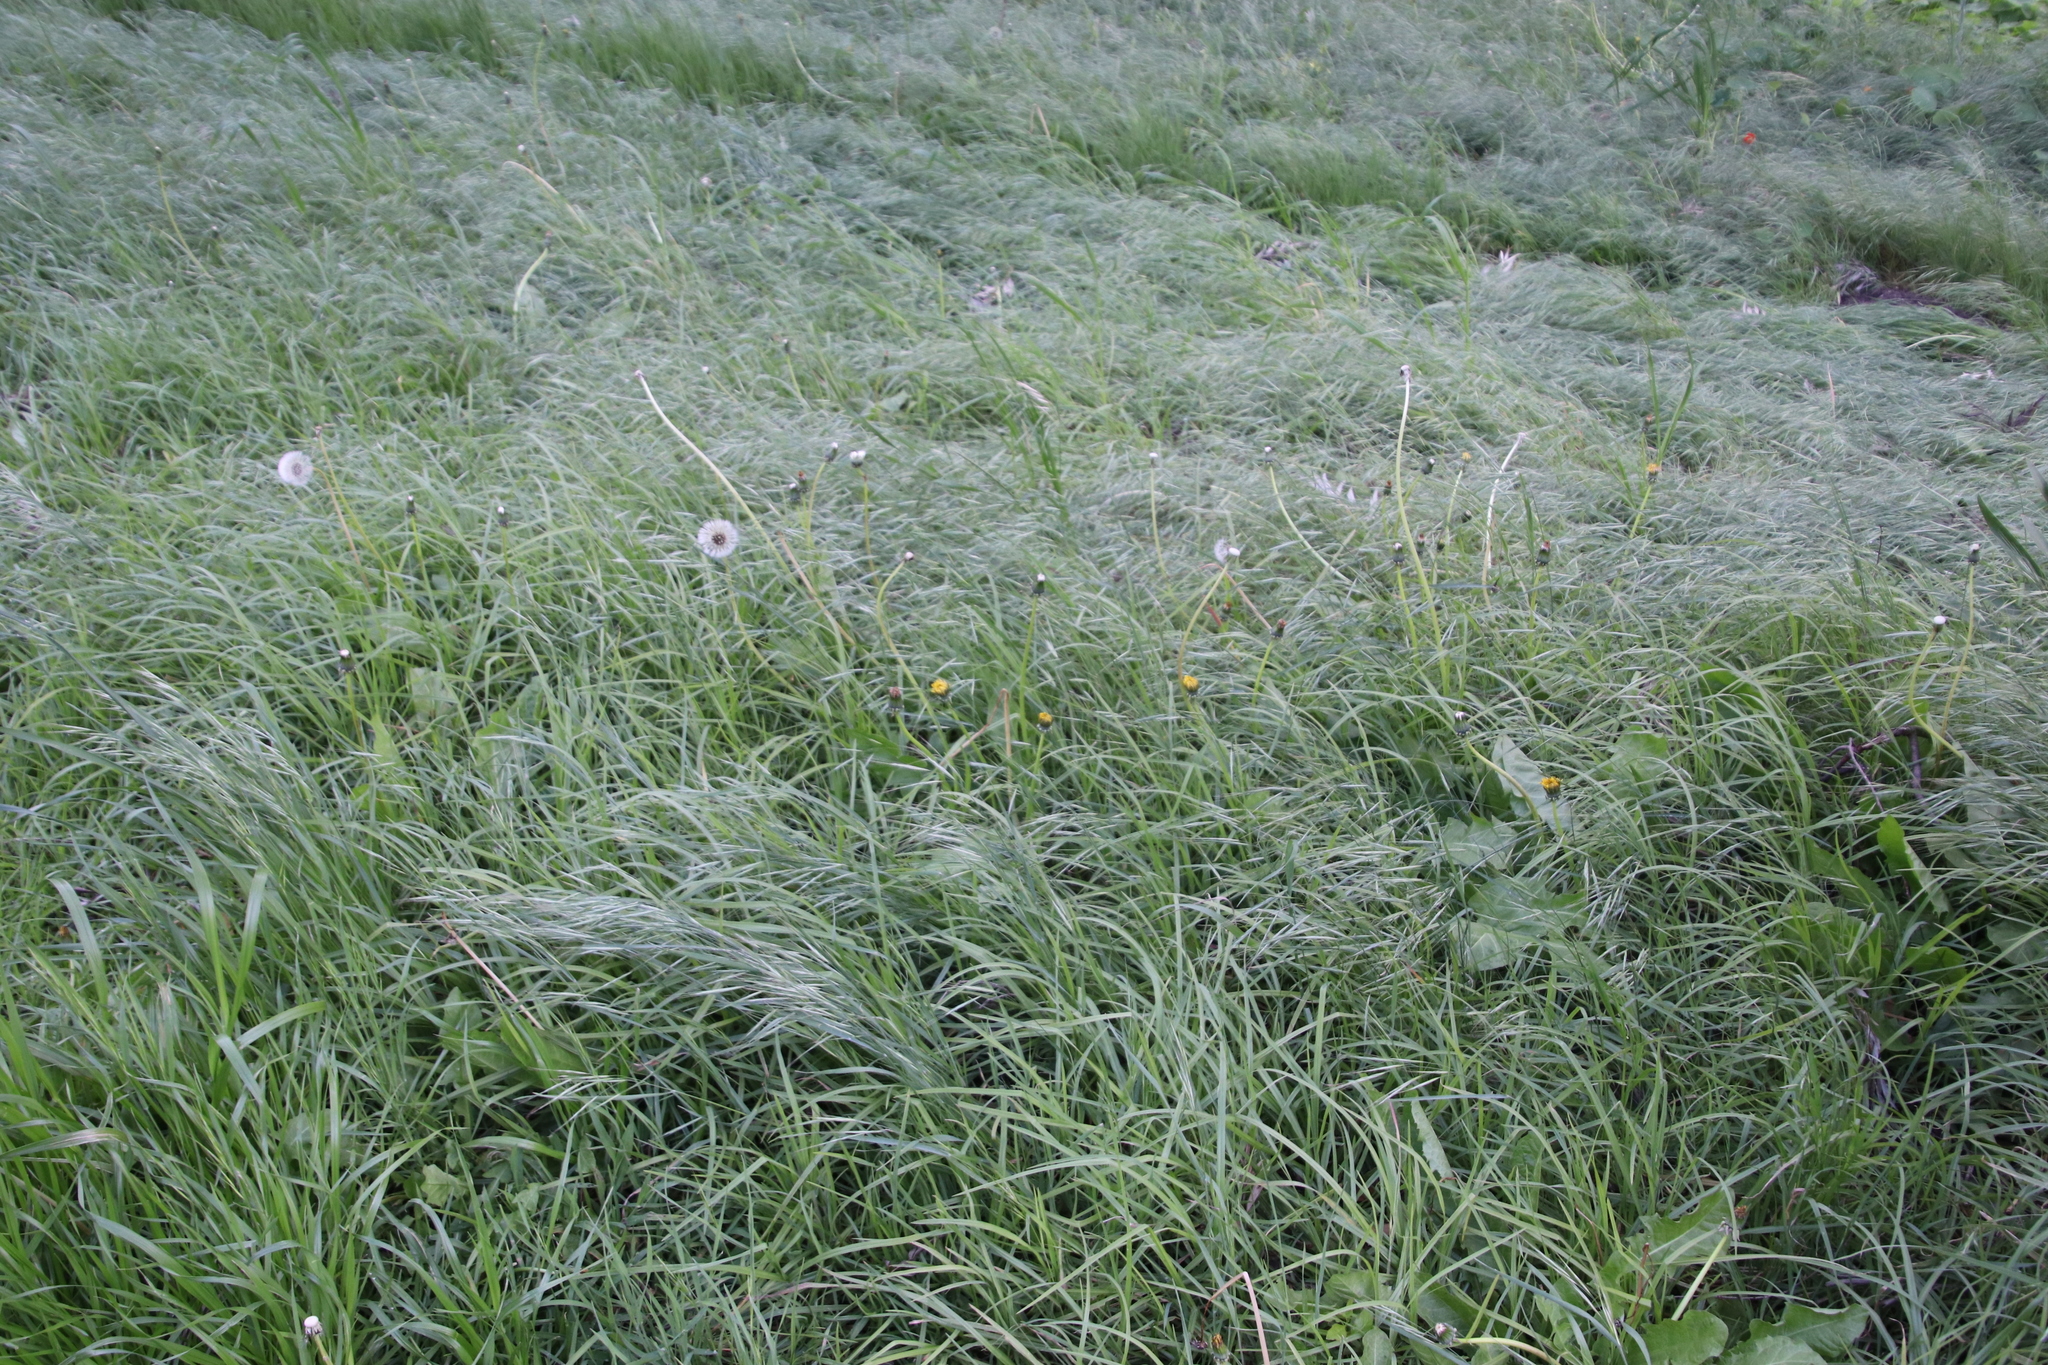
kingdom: Plantae
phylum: Tracheophyta
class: Magnoliopsida
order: Asterales
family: Asteraceae
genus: Taraxacum
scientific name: Taraxacum officinale
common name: Common dandelion
